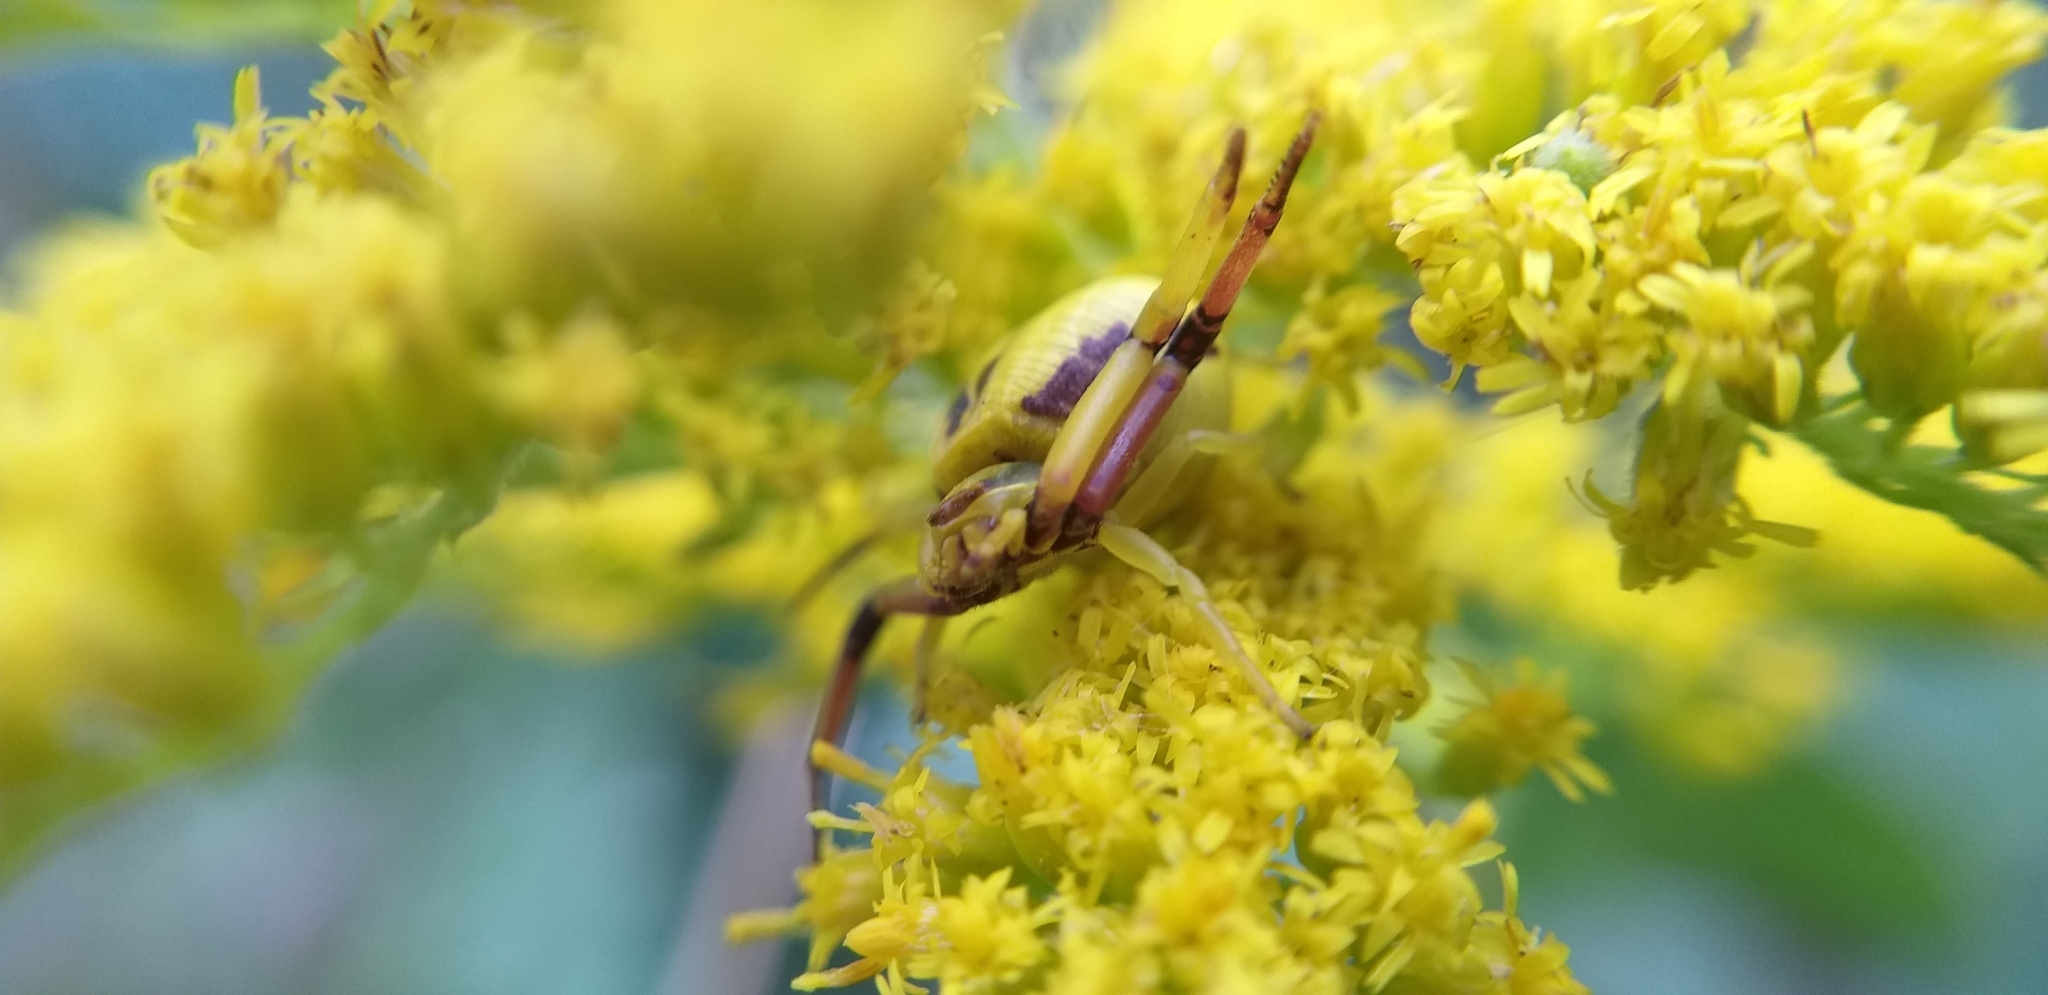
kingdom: Animalia
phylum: Arthropoda
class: Arachnida
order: Araneae
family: Thomisidae
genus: Misumenoides
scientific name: Misumenoides formosipes
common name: White-banded crab spider
